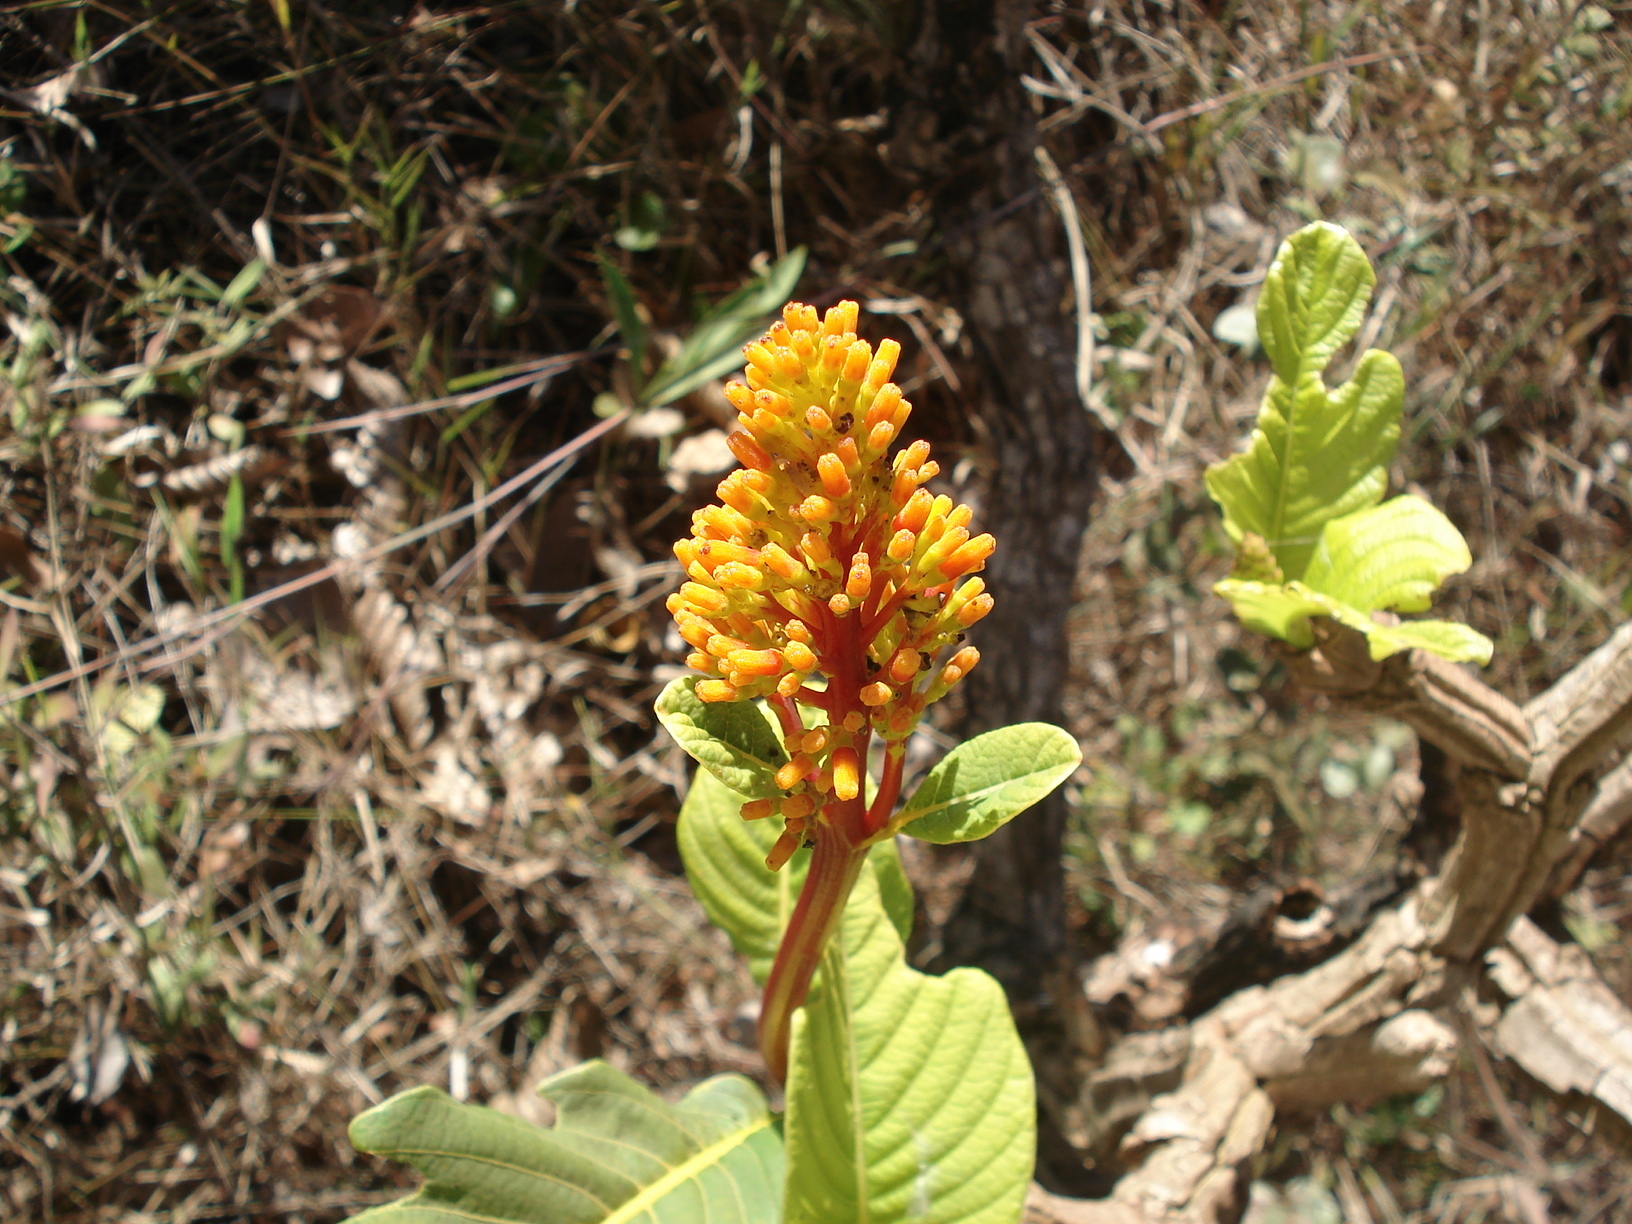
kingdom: Plantae
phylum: Tracheophyta
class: Magnoliopsida
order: Gentianales
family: Rubiaceae
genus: Palicourea
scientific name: Palicourea rigida
